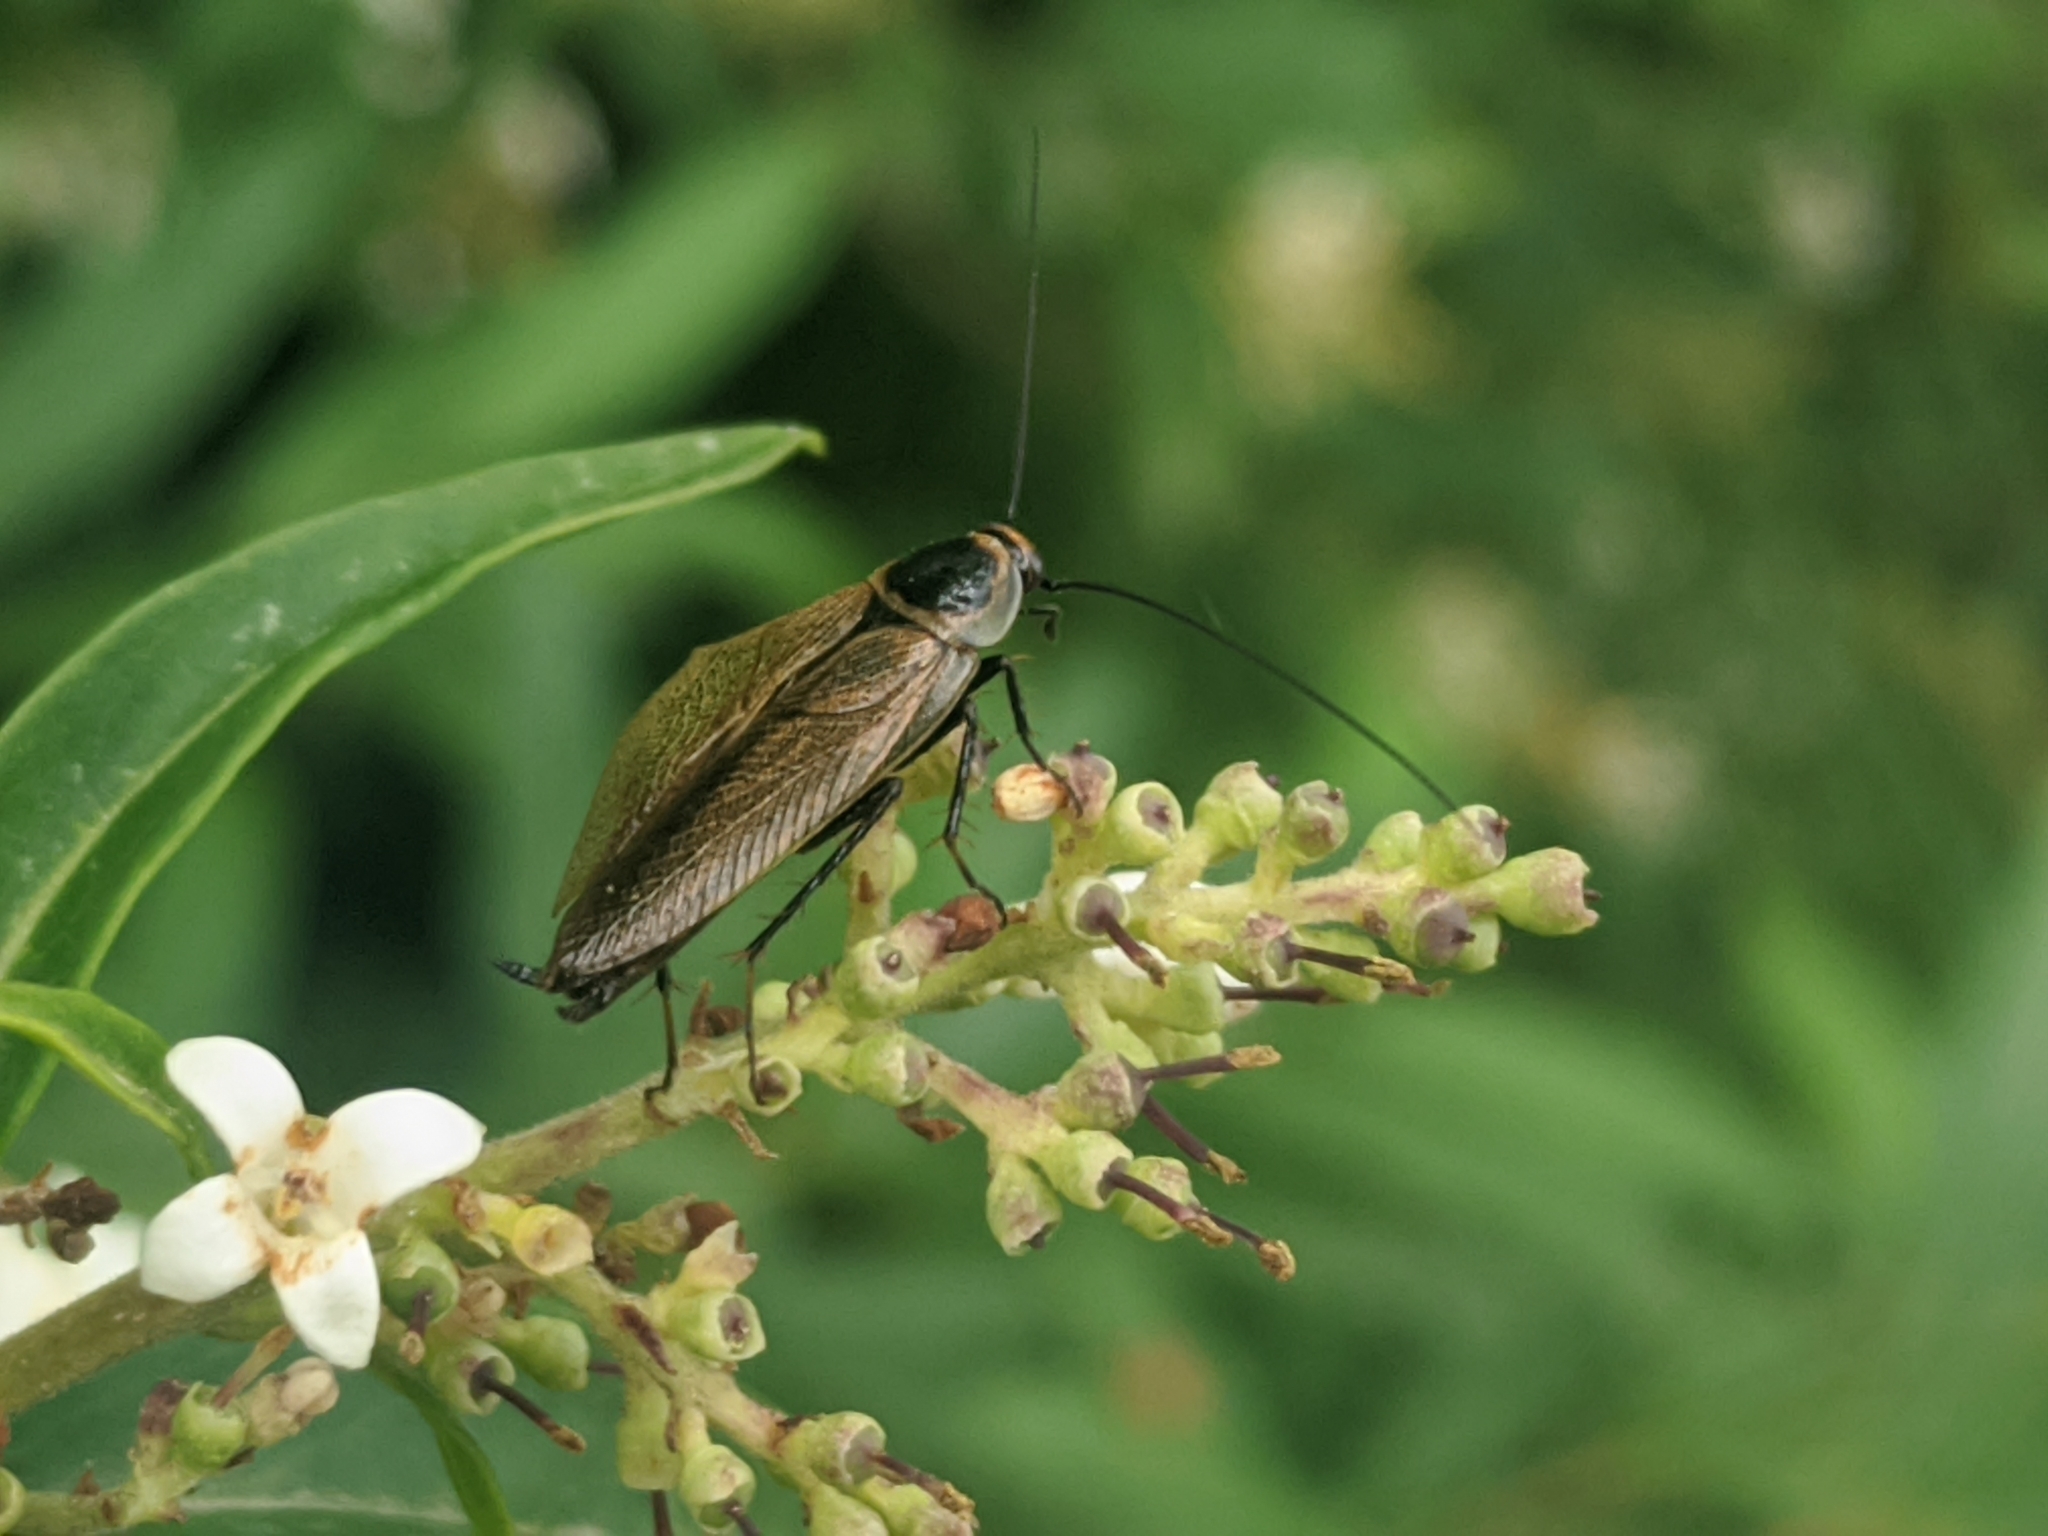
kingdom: Animalia
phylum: Arthropoda
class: Insecta
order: Blattodea
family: Ectobiidae
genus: Ectobius
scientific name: Ectobius erythronotus
